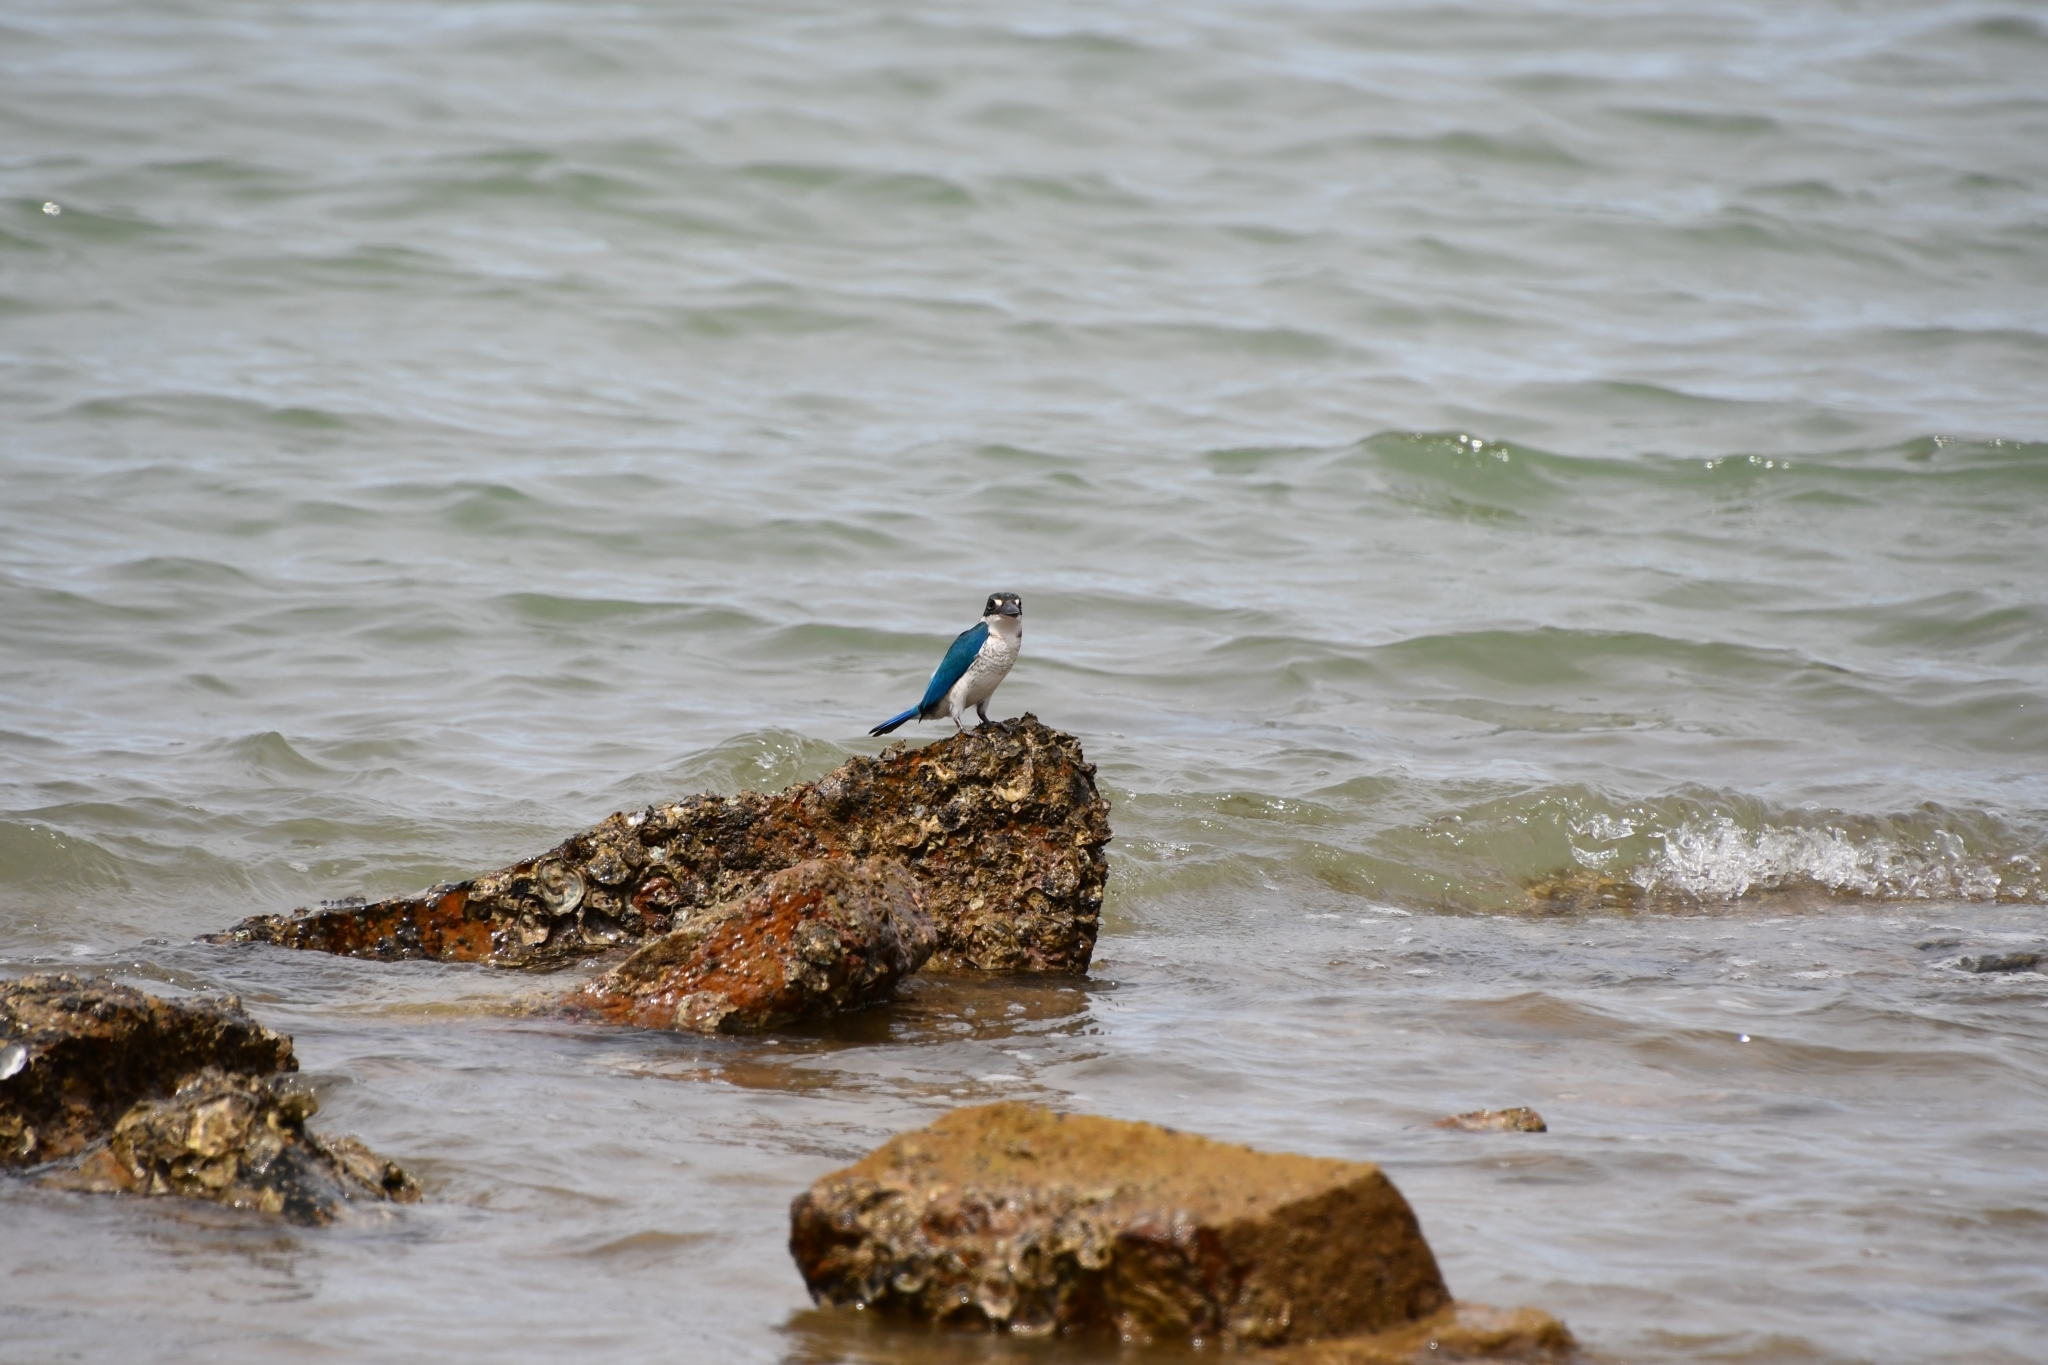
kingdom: Animalia
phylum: Chordata
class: Aves
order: Coraciiformes
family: Alcedinidae
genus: Todiramphus
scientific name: Todiramphus chloris
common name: Collared kingfisher
